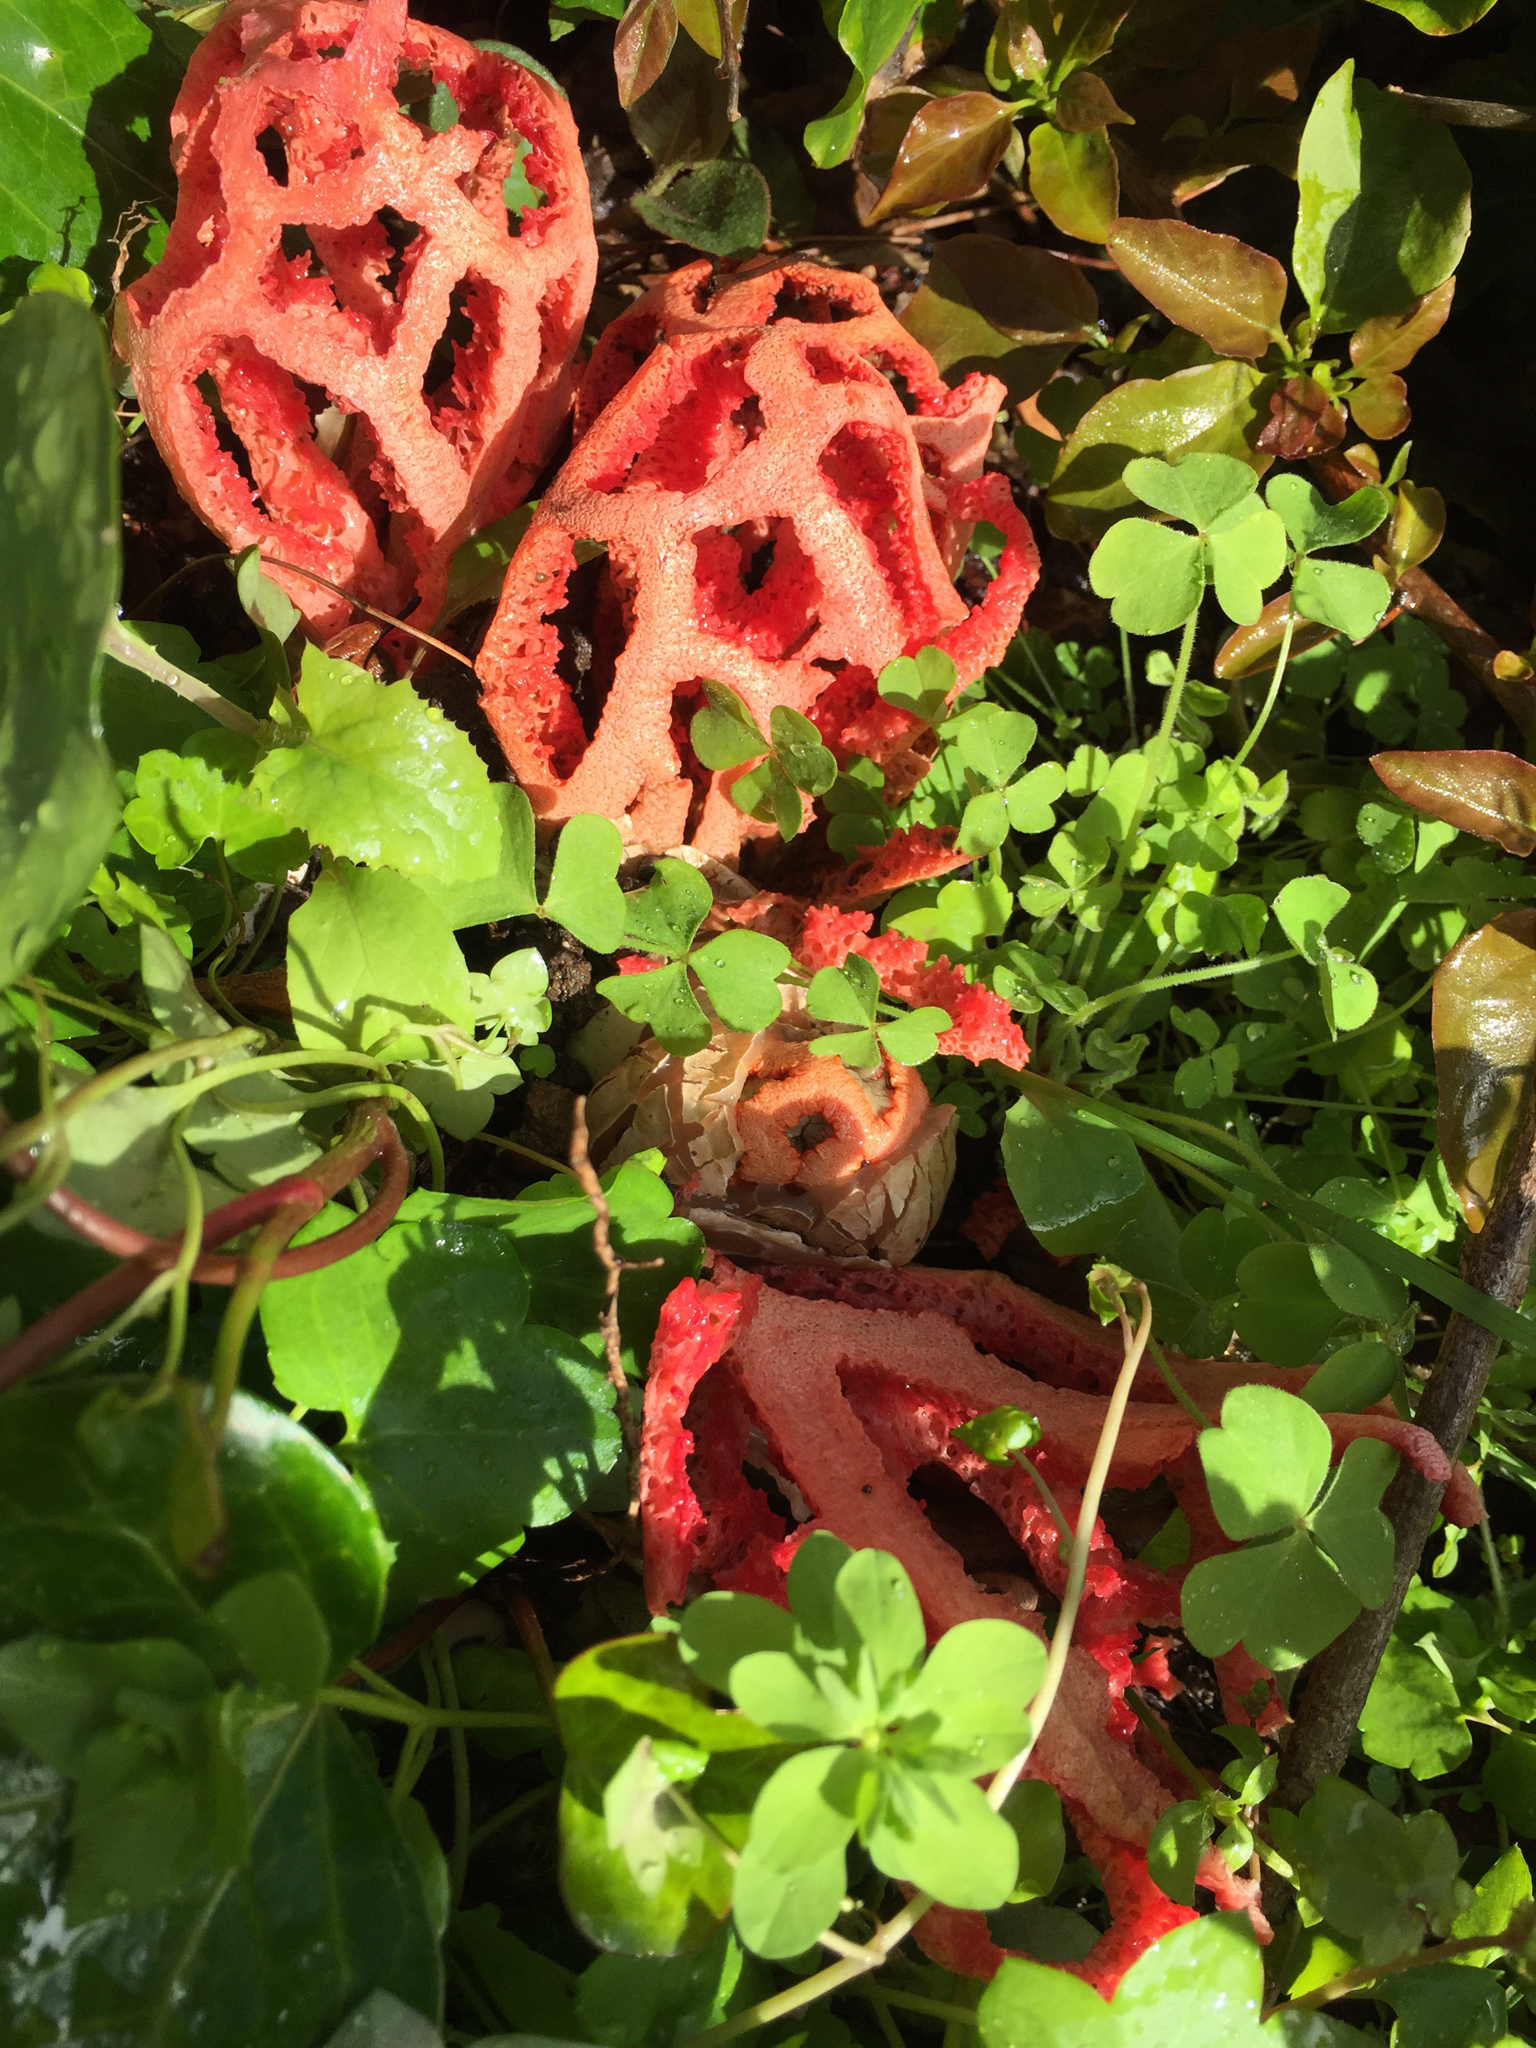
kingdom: Fungi
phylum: Basidiomycota
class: Agaricomycetes
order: Phallales
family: Phallaceae
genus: Clathrus
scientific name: Clathrus ruber
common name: Red cage
